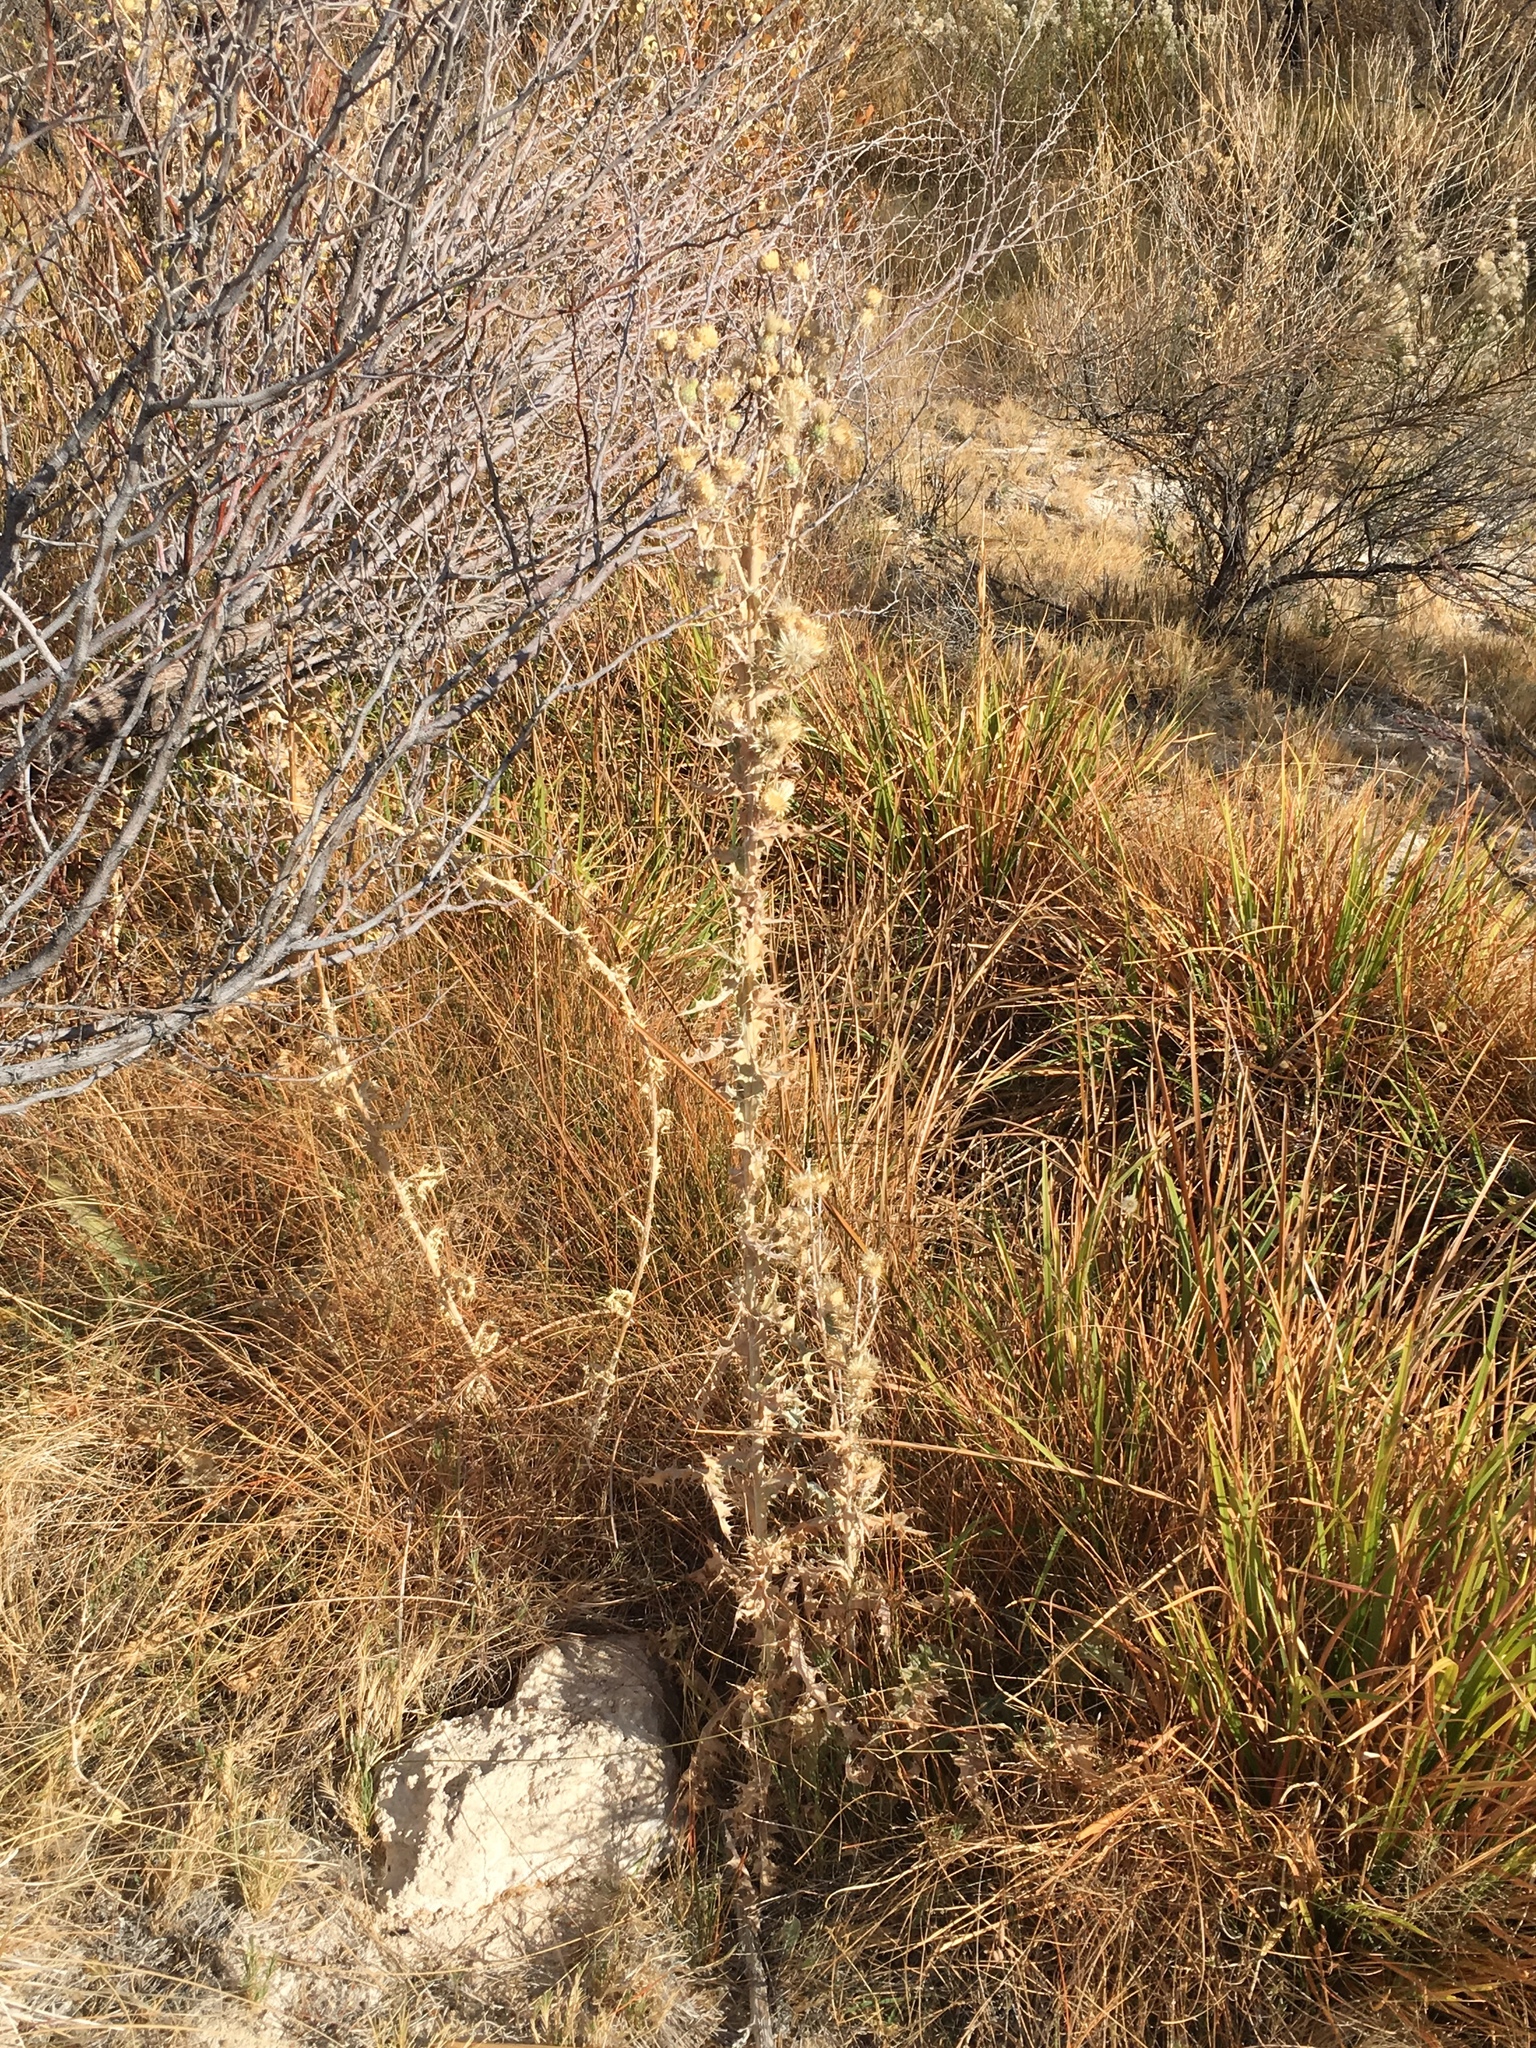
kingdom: Plantae
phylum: Tracheophyta
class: Magnoliopsida
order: Asterales
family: Asteraceae
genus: Cirsium
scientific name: Cirsium mohavense
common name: Mojave thistle
